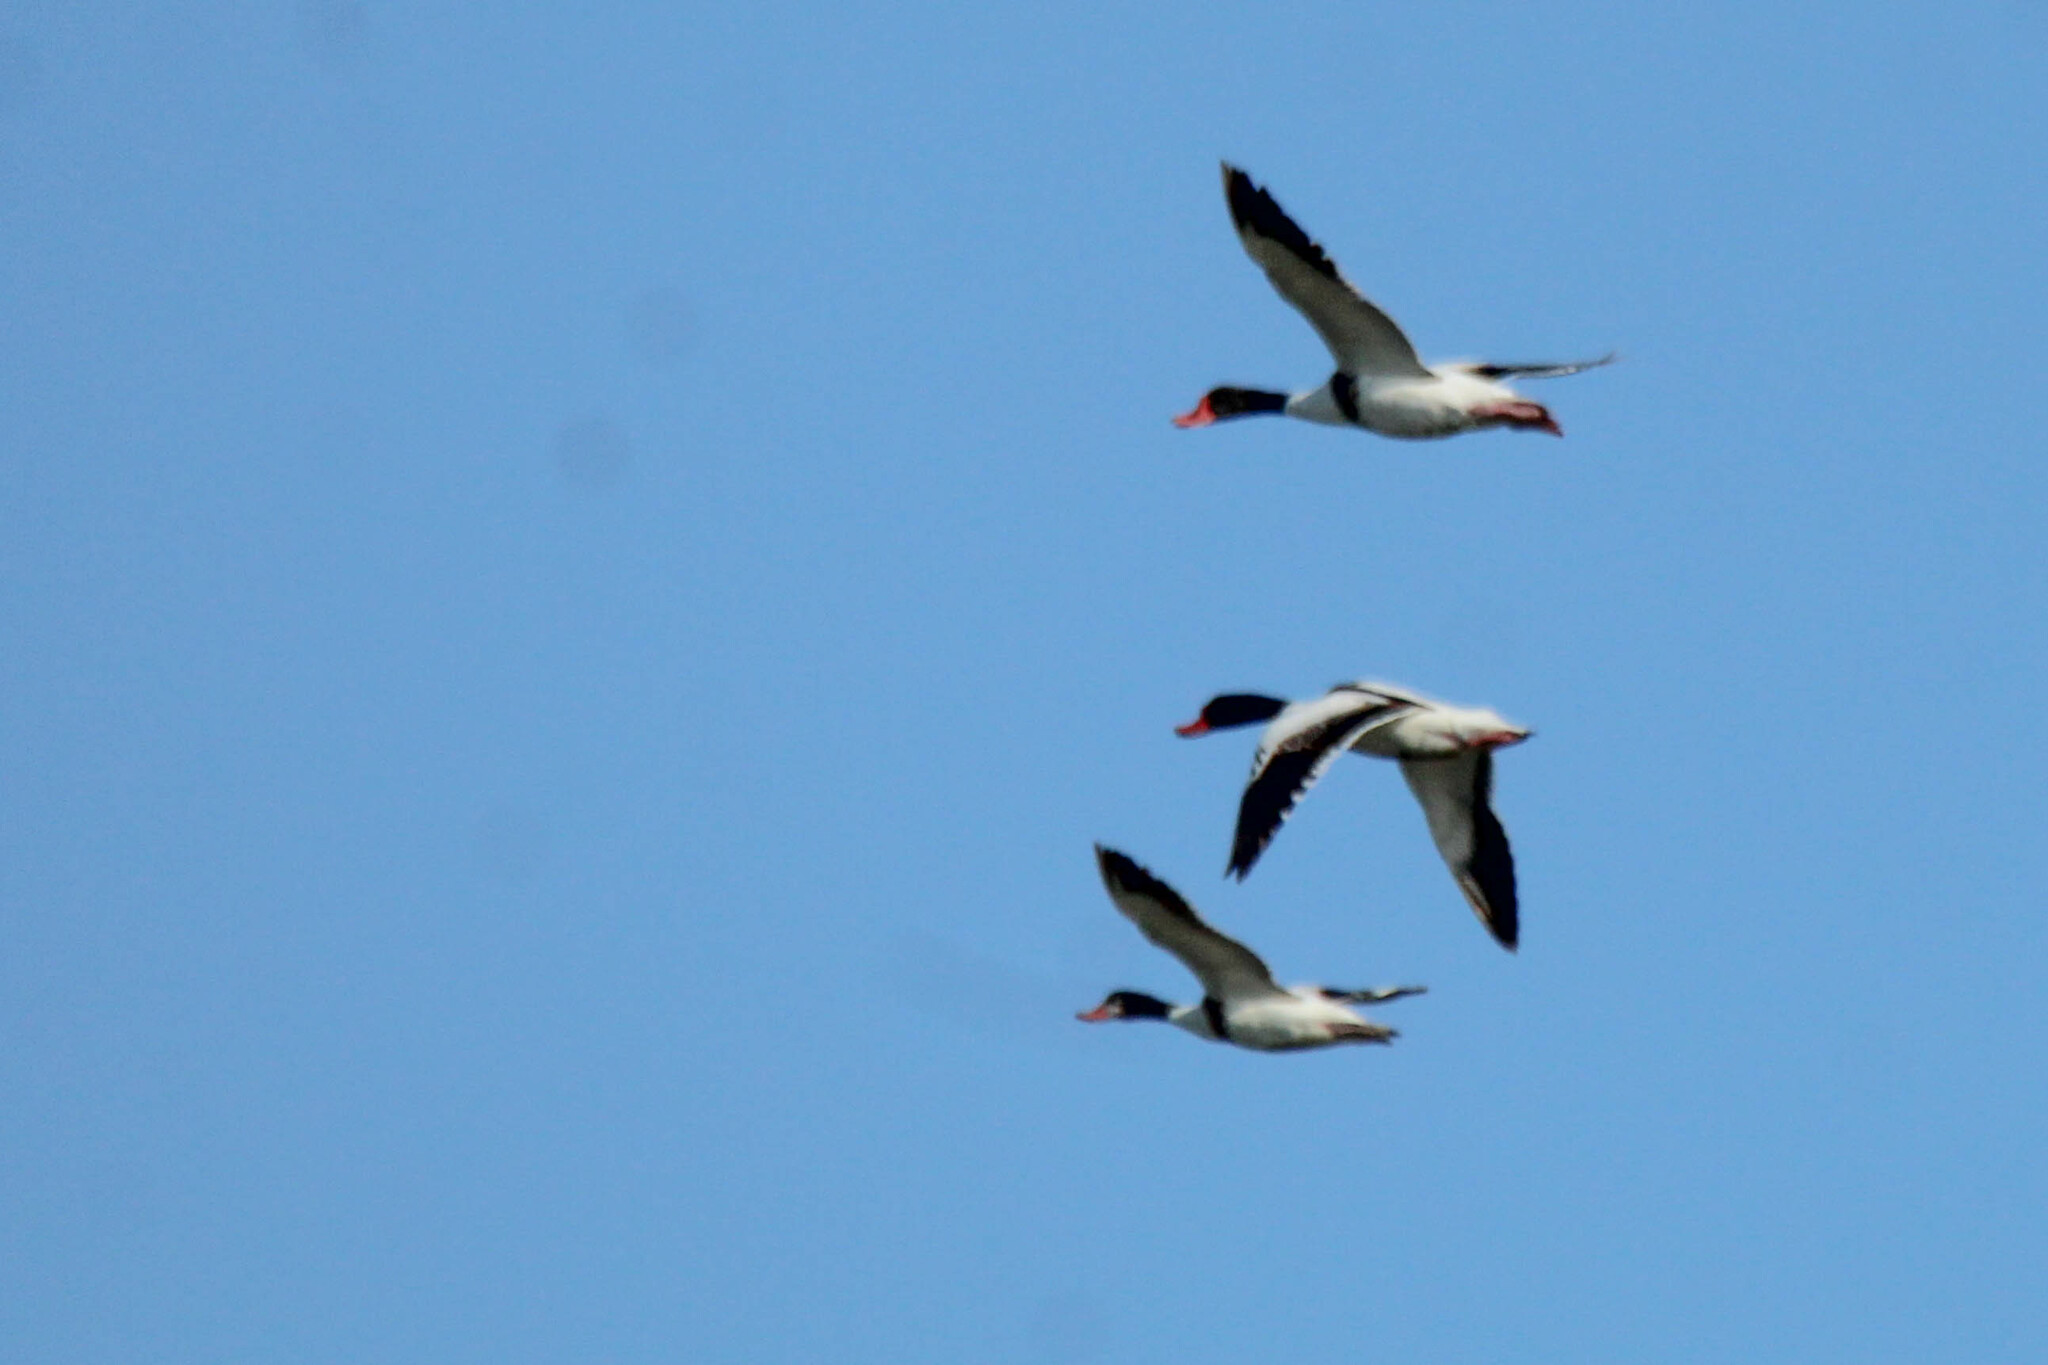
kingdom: Animalia
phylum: Chordata
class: Aves
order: Anseriformes
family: Anatidae
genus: Tadorna
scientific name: Tadorna tadorna
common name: Common shelduck
